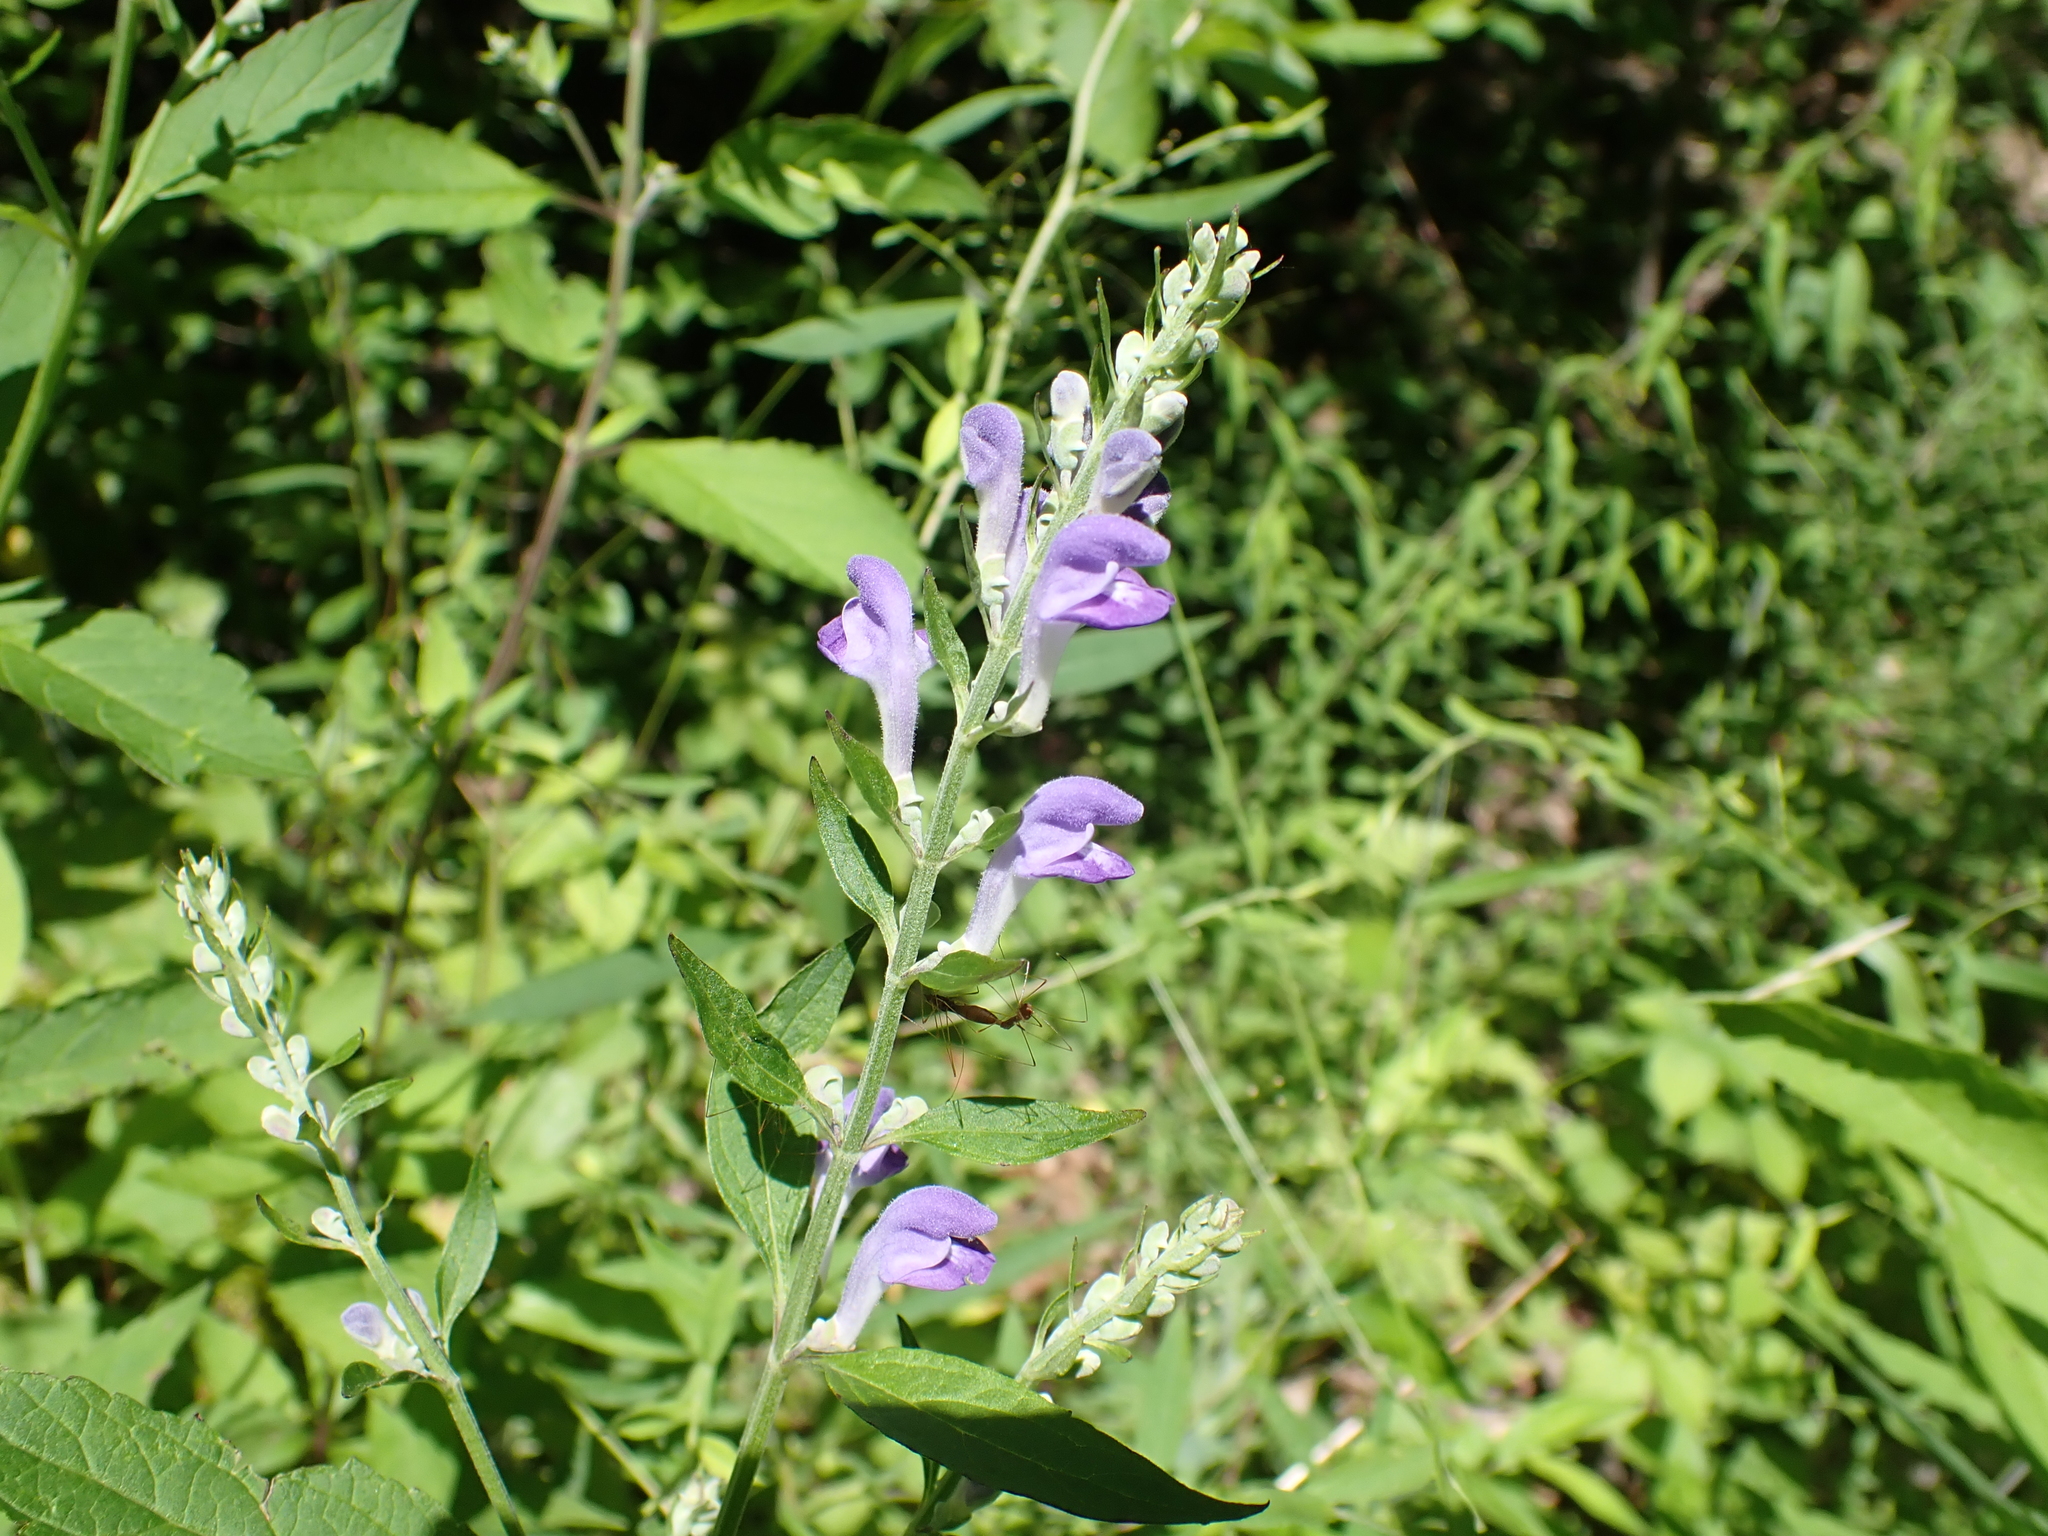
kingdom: Plantae
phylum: Tracheophyta
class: Magnoliopsida
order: Lamiales
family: Lamiaceae
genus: Scutellaria
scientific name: Scutellaria incana
